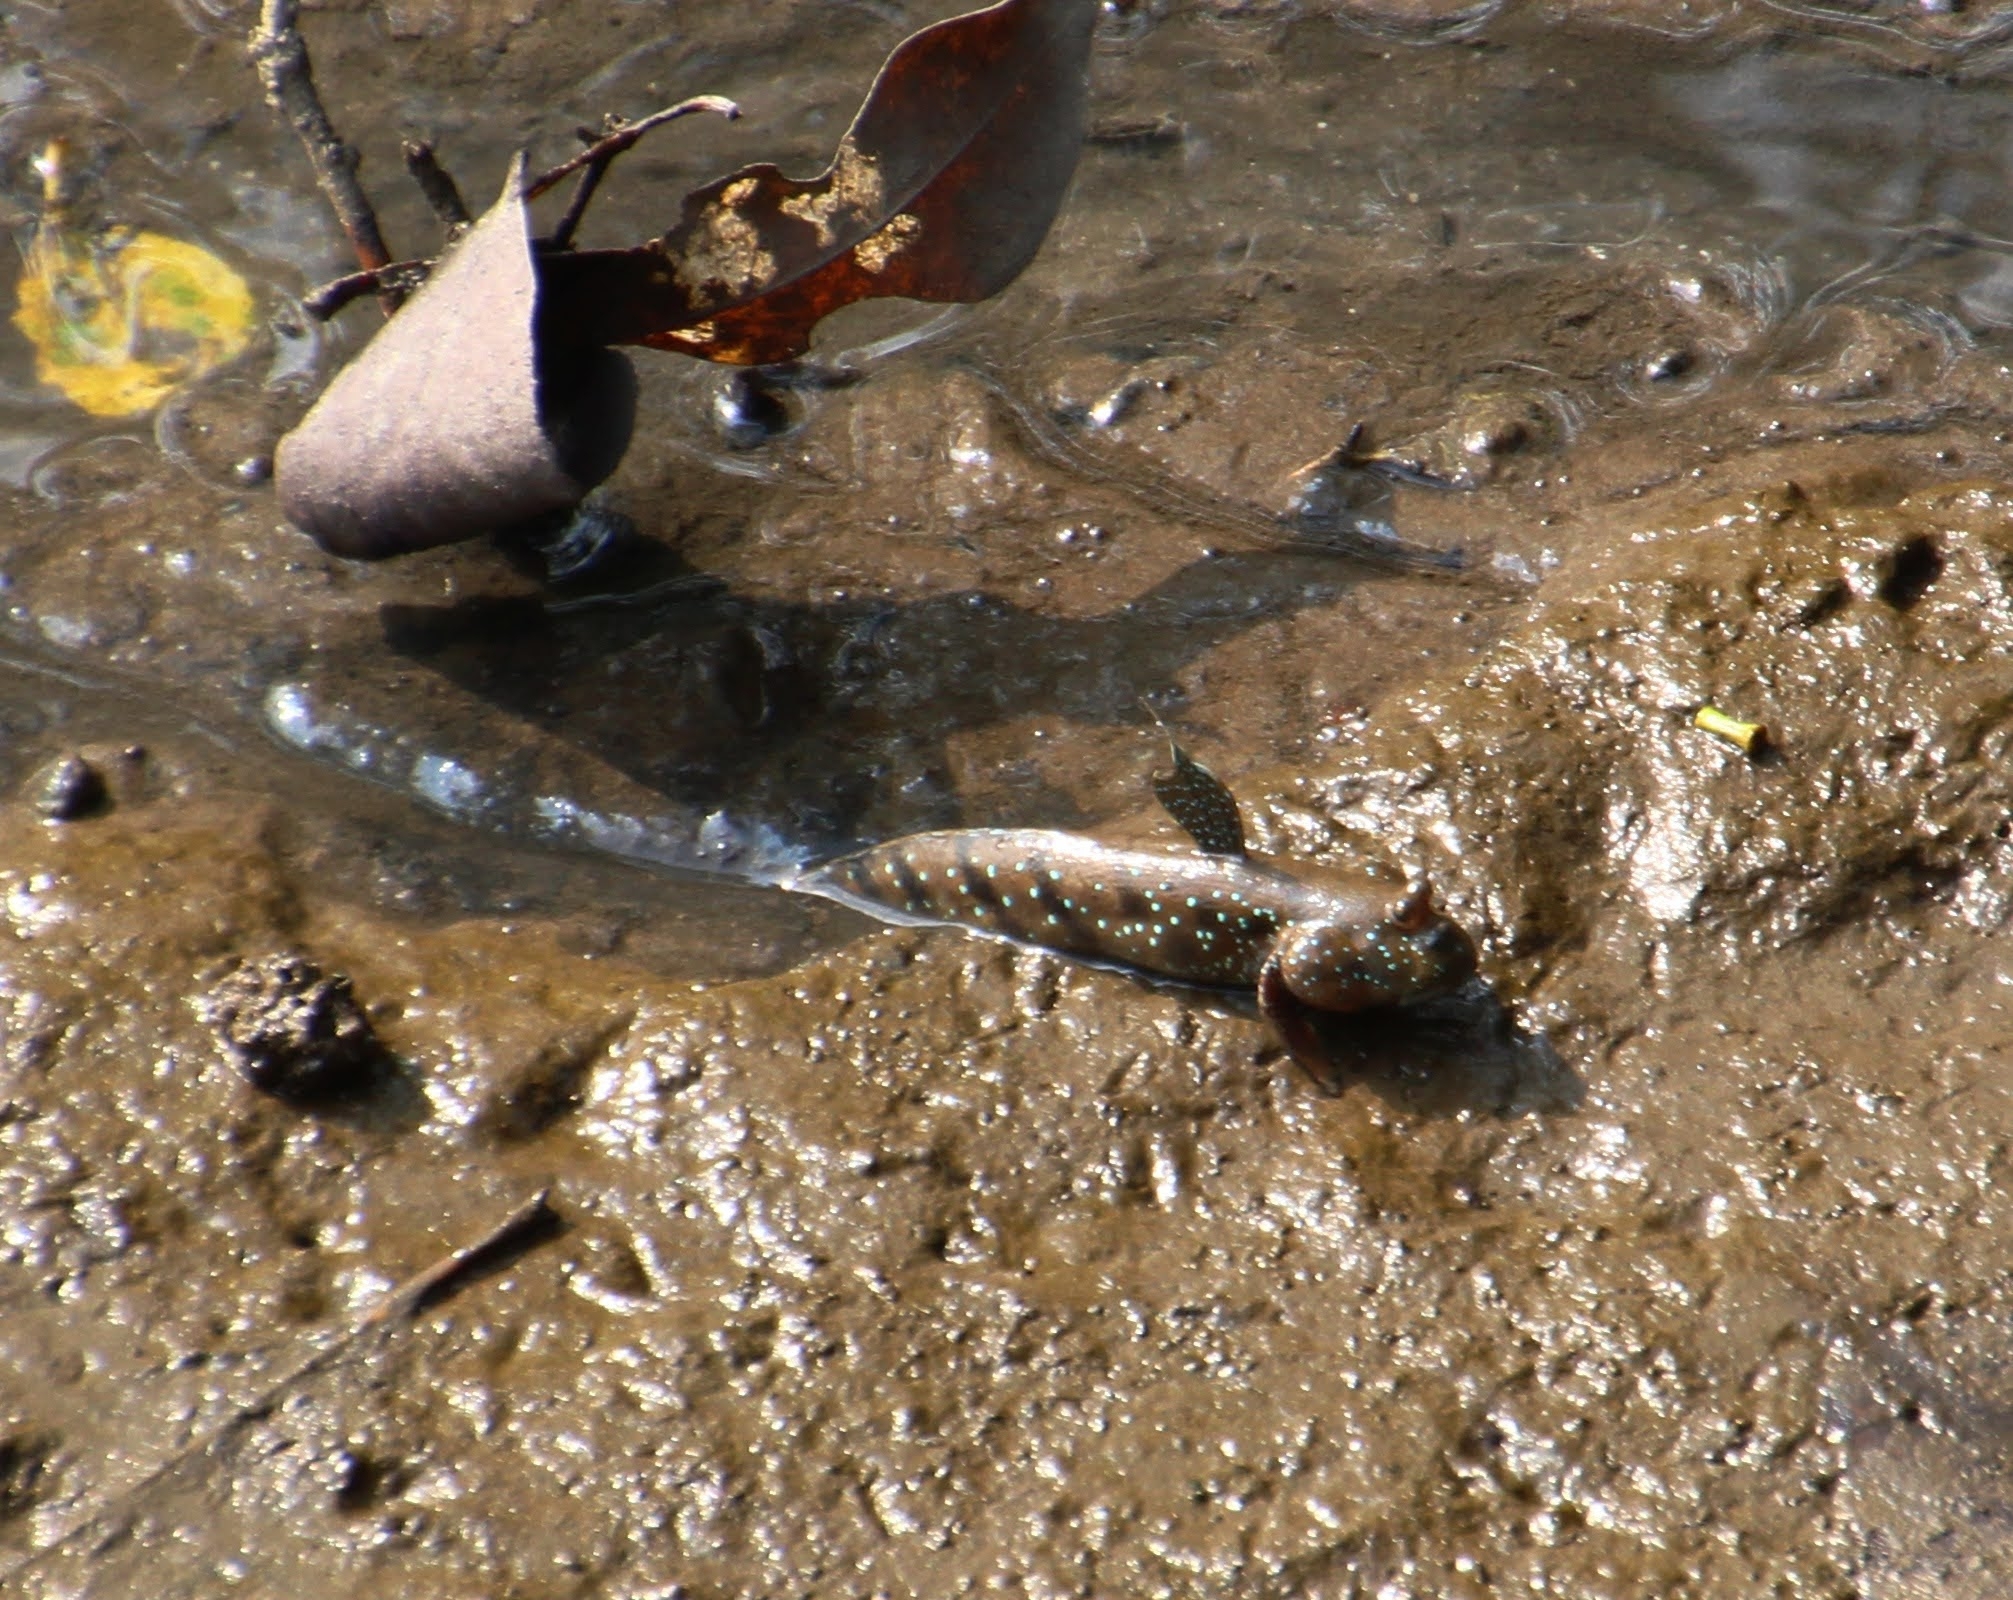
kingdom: Animalia
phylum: Chordata
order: Perciformes
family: Gobiidae
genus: Boleophthalmus
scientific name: Boleophthalmus boddarti
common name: Boddart's goggle-eyed goby
